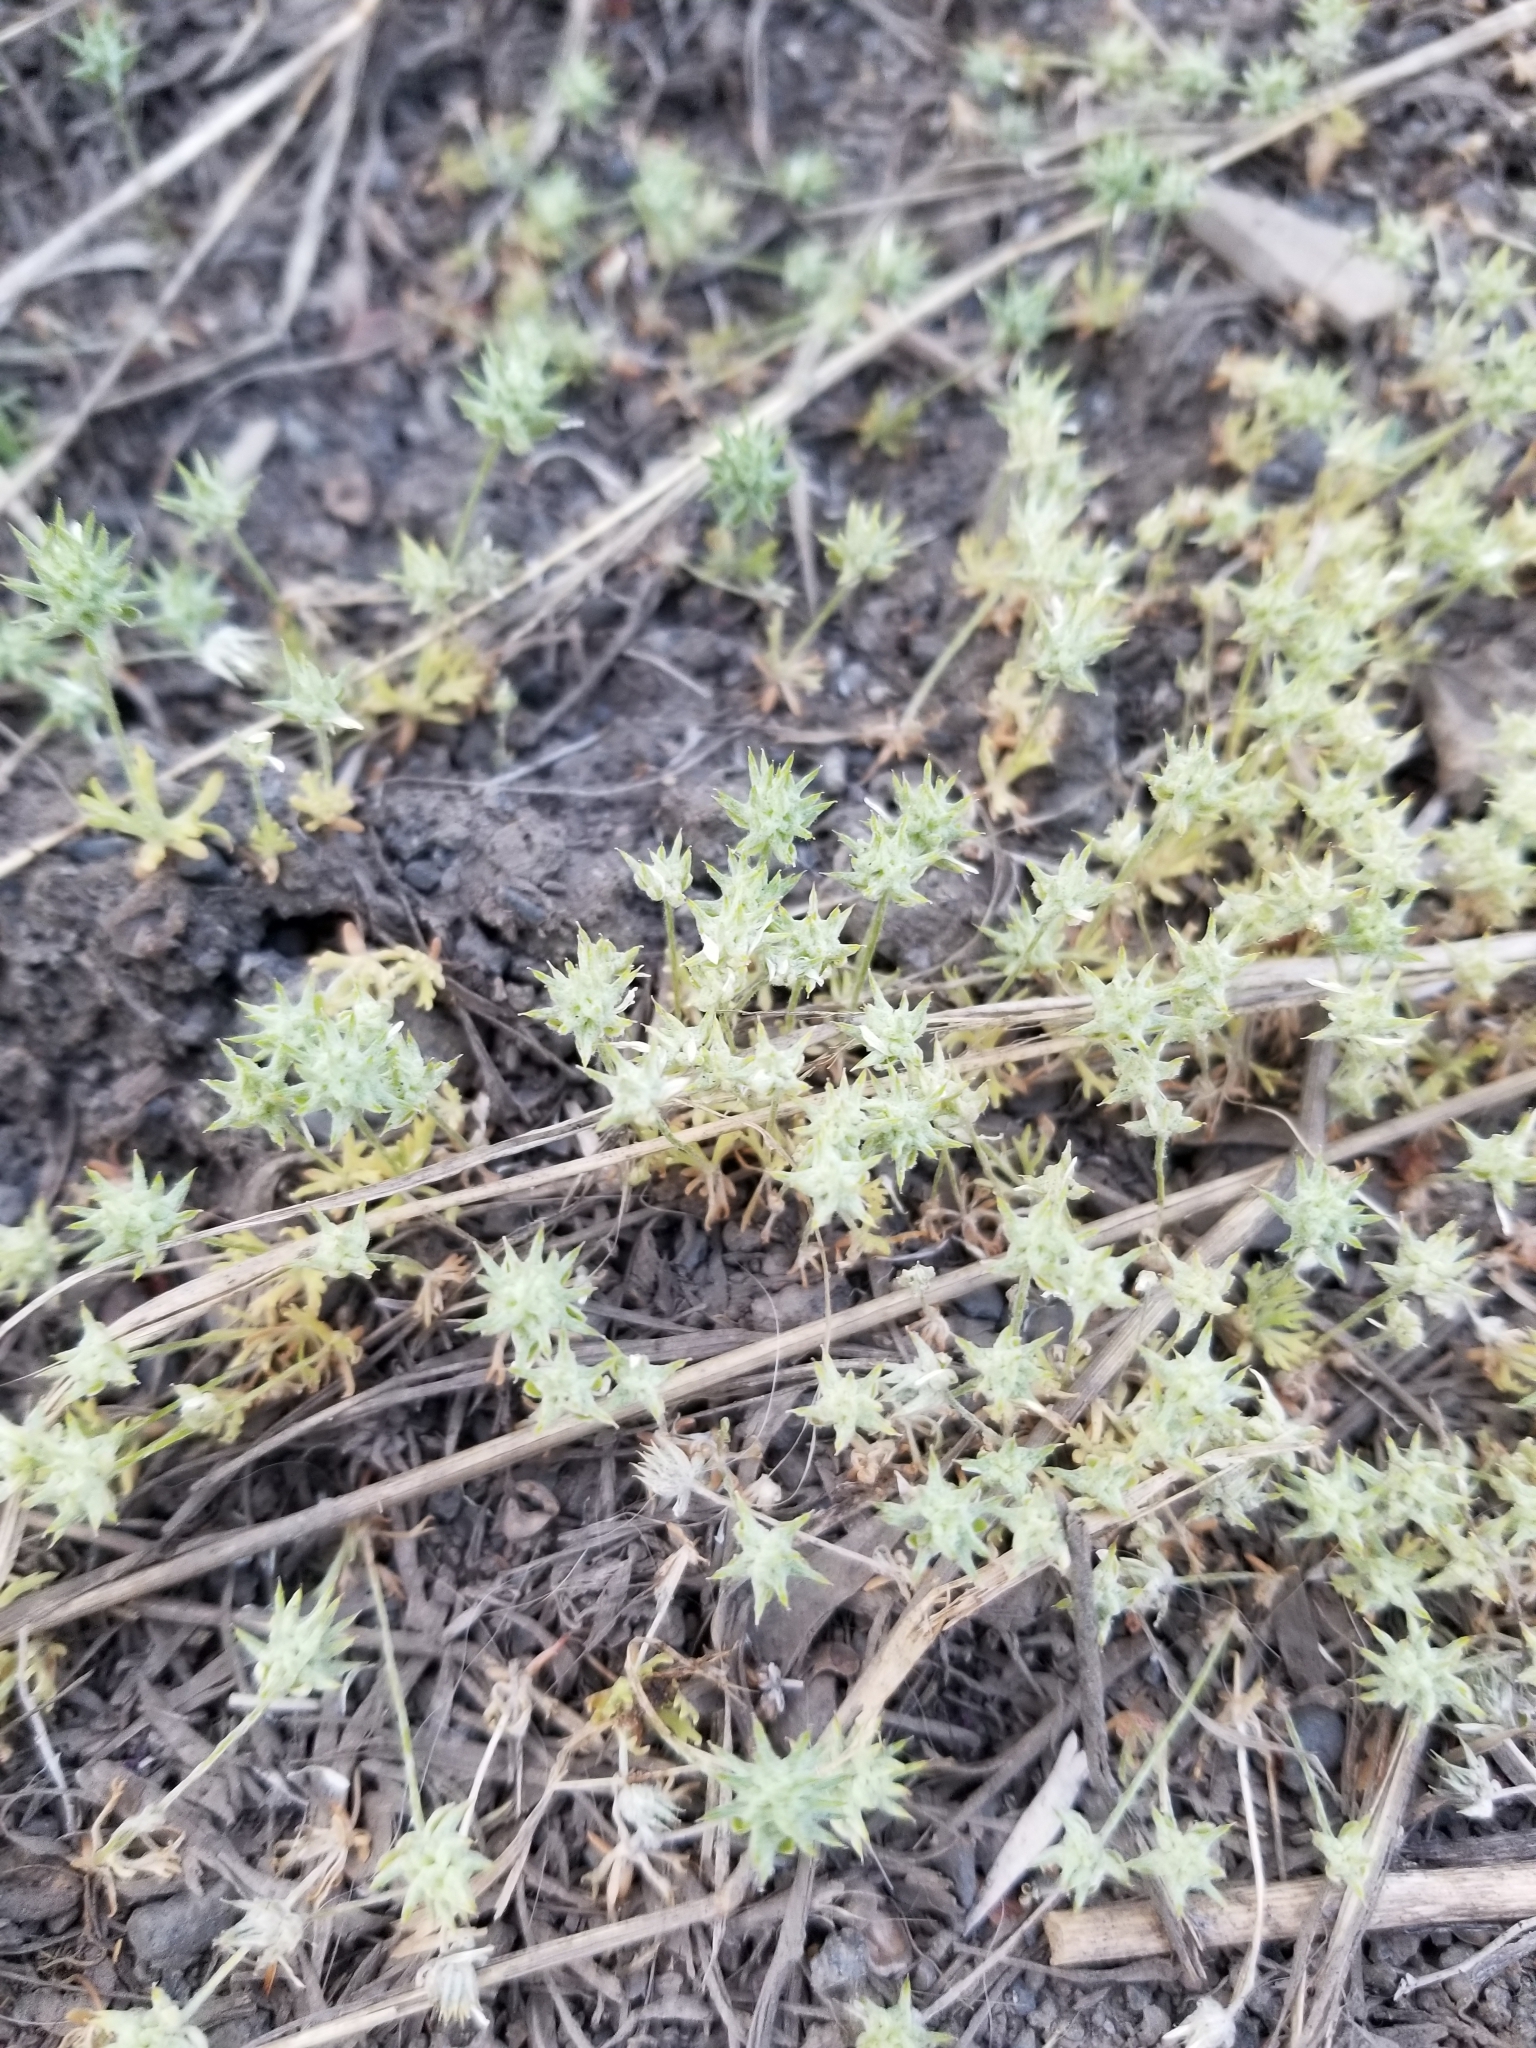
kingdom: Plantae
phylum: Tracheophyta
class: Magnoliopsida
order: Ranunculales
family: Ranunculaceae
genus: Ceratocephala
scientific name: Ceratocephala orthoceras
